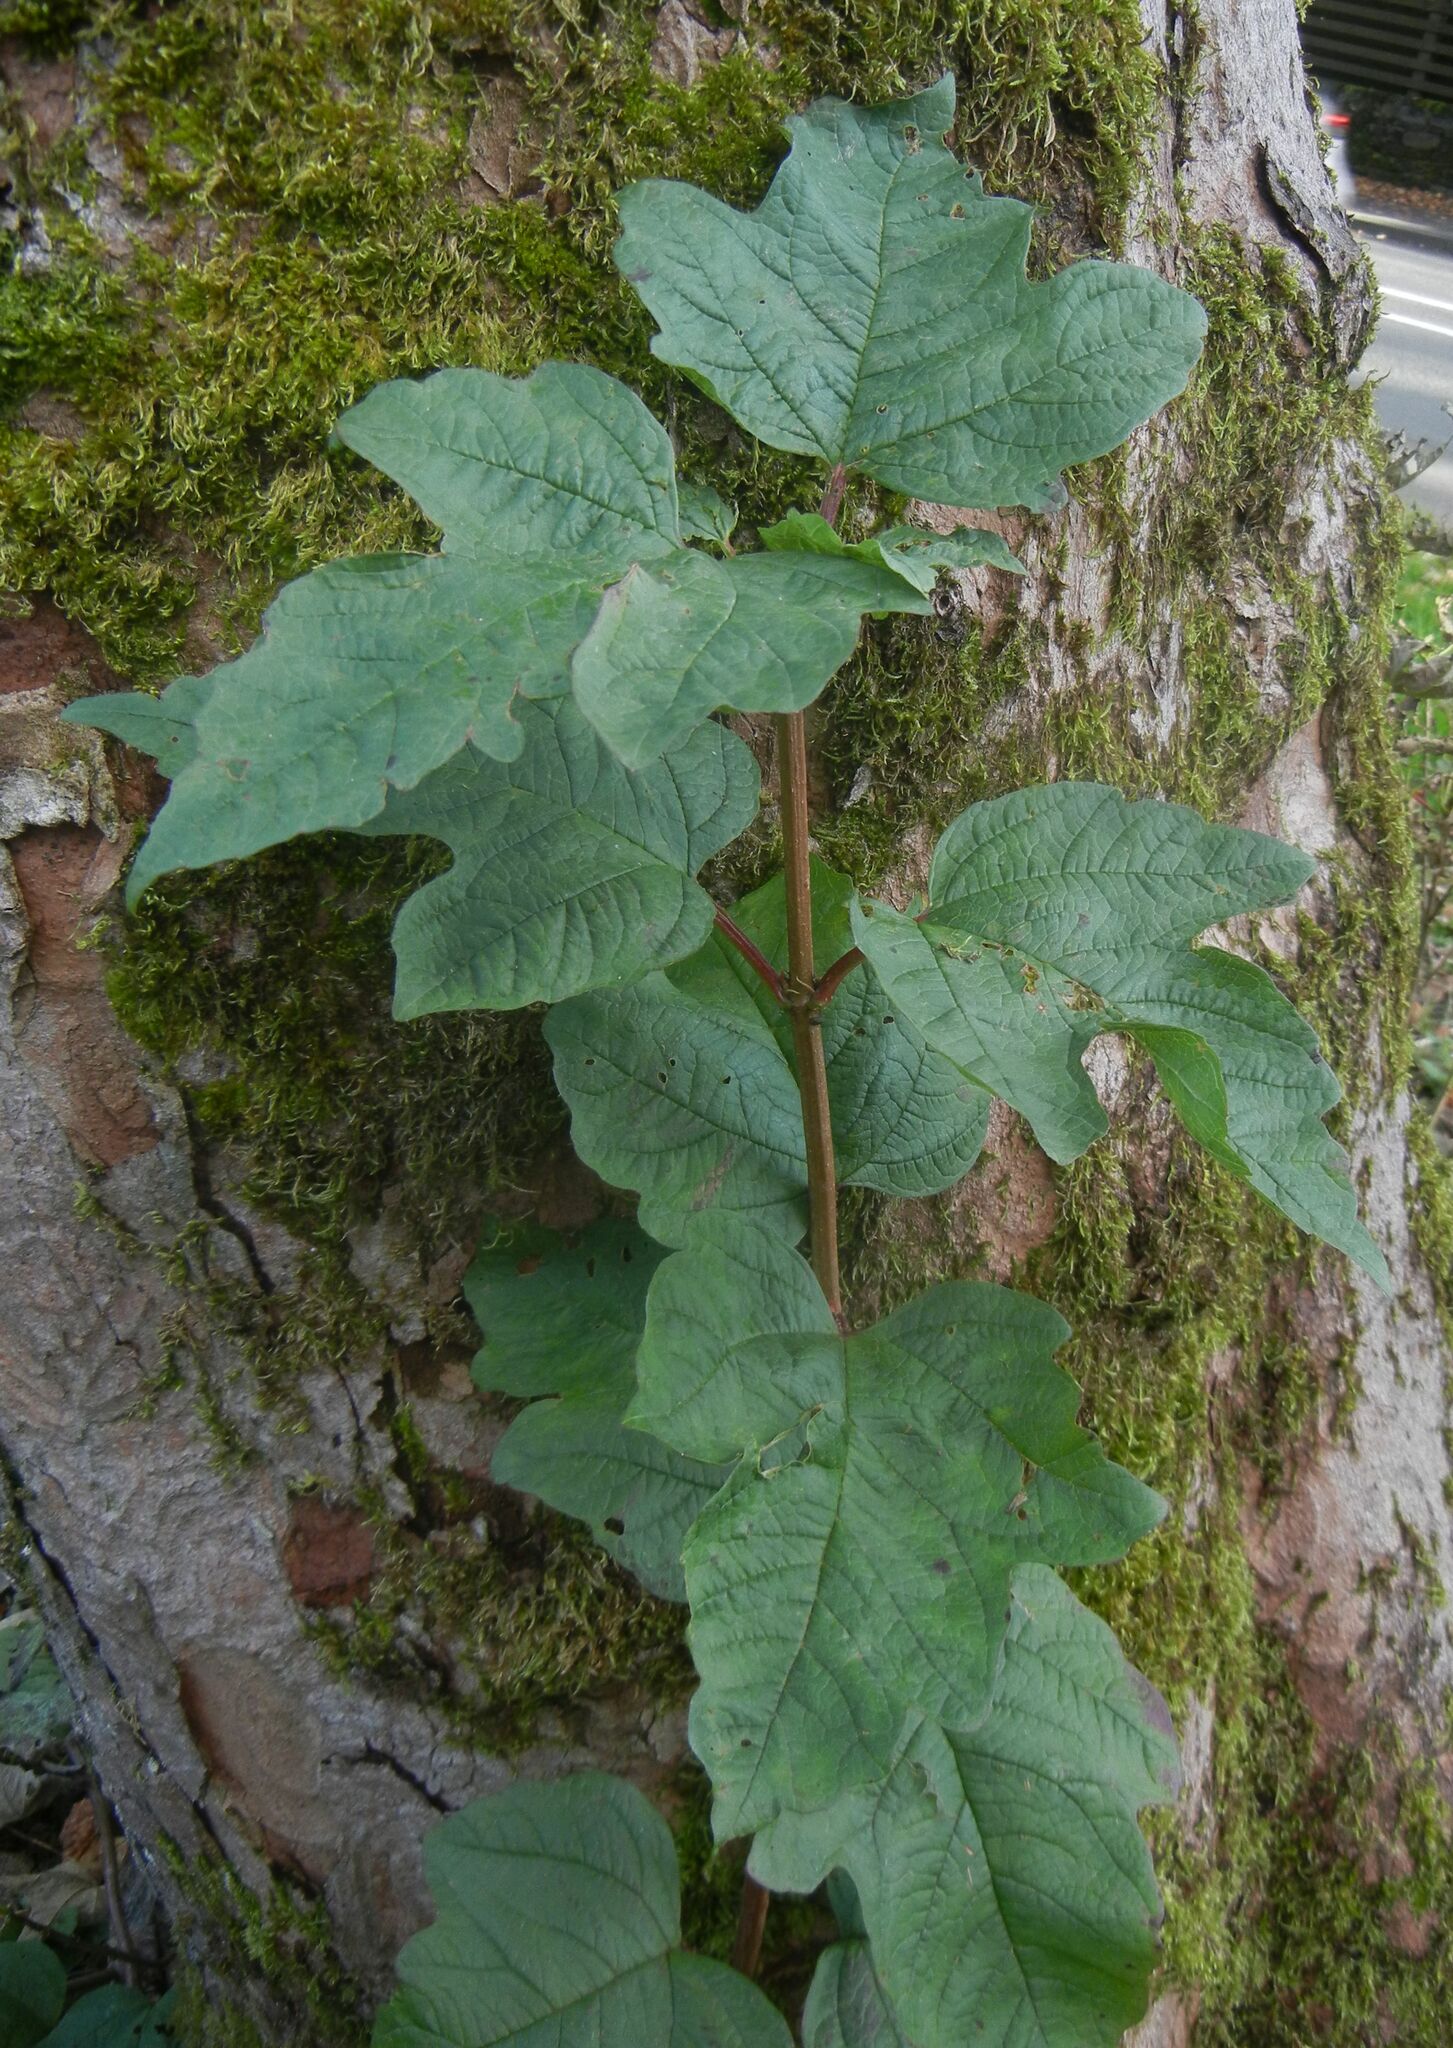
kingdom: Plantae
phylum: Tracheophyta
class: Magnoliopsida
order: Dipsacales
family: Viburnaceae
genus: Viburnum
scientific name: Viburnum opulus
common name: Guelder-rose
